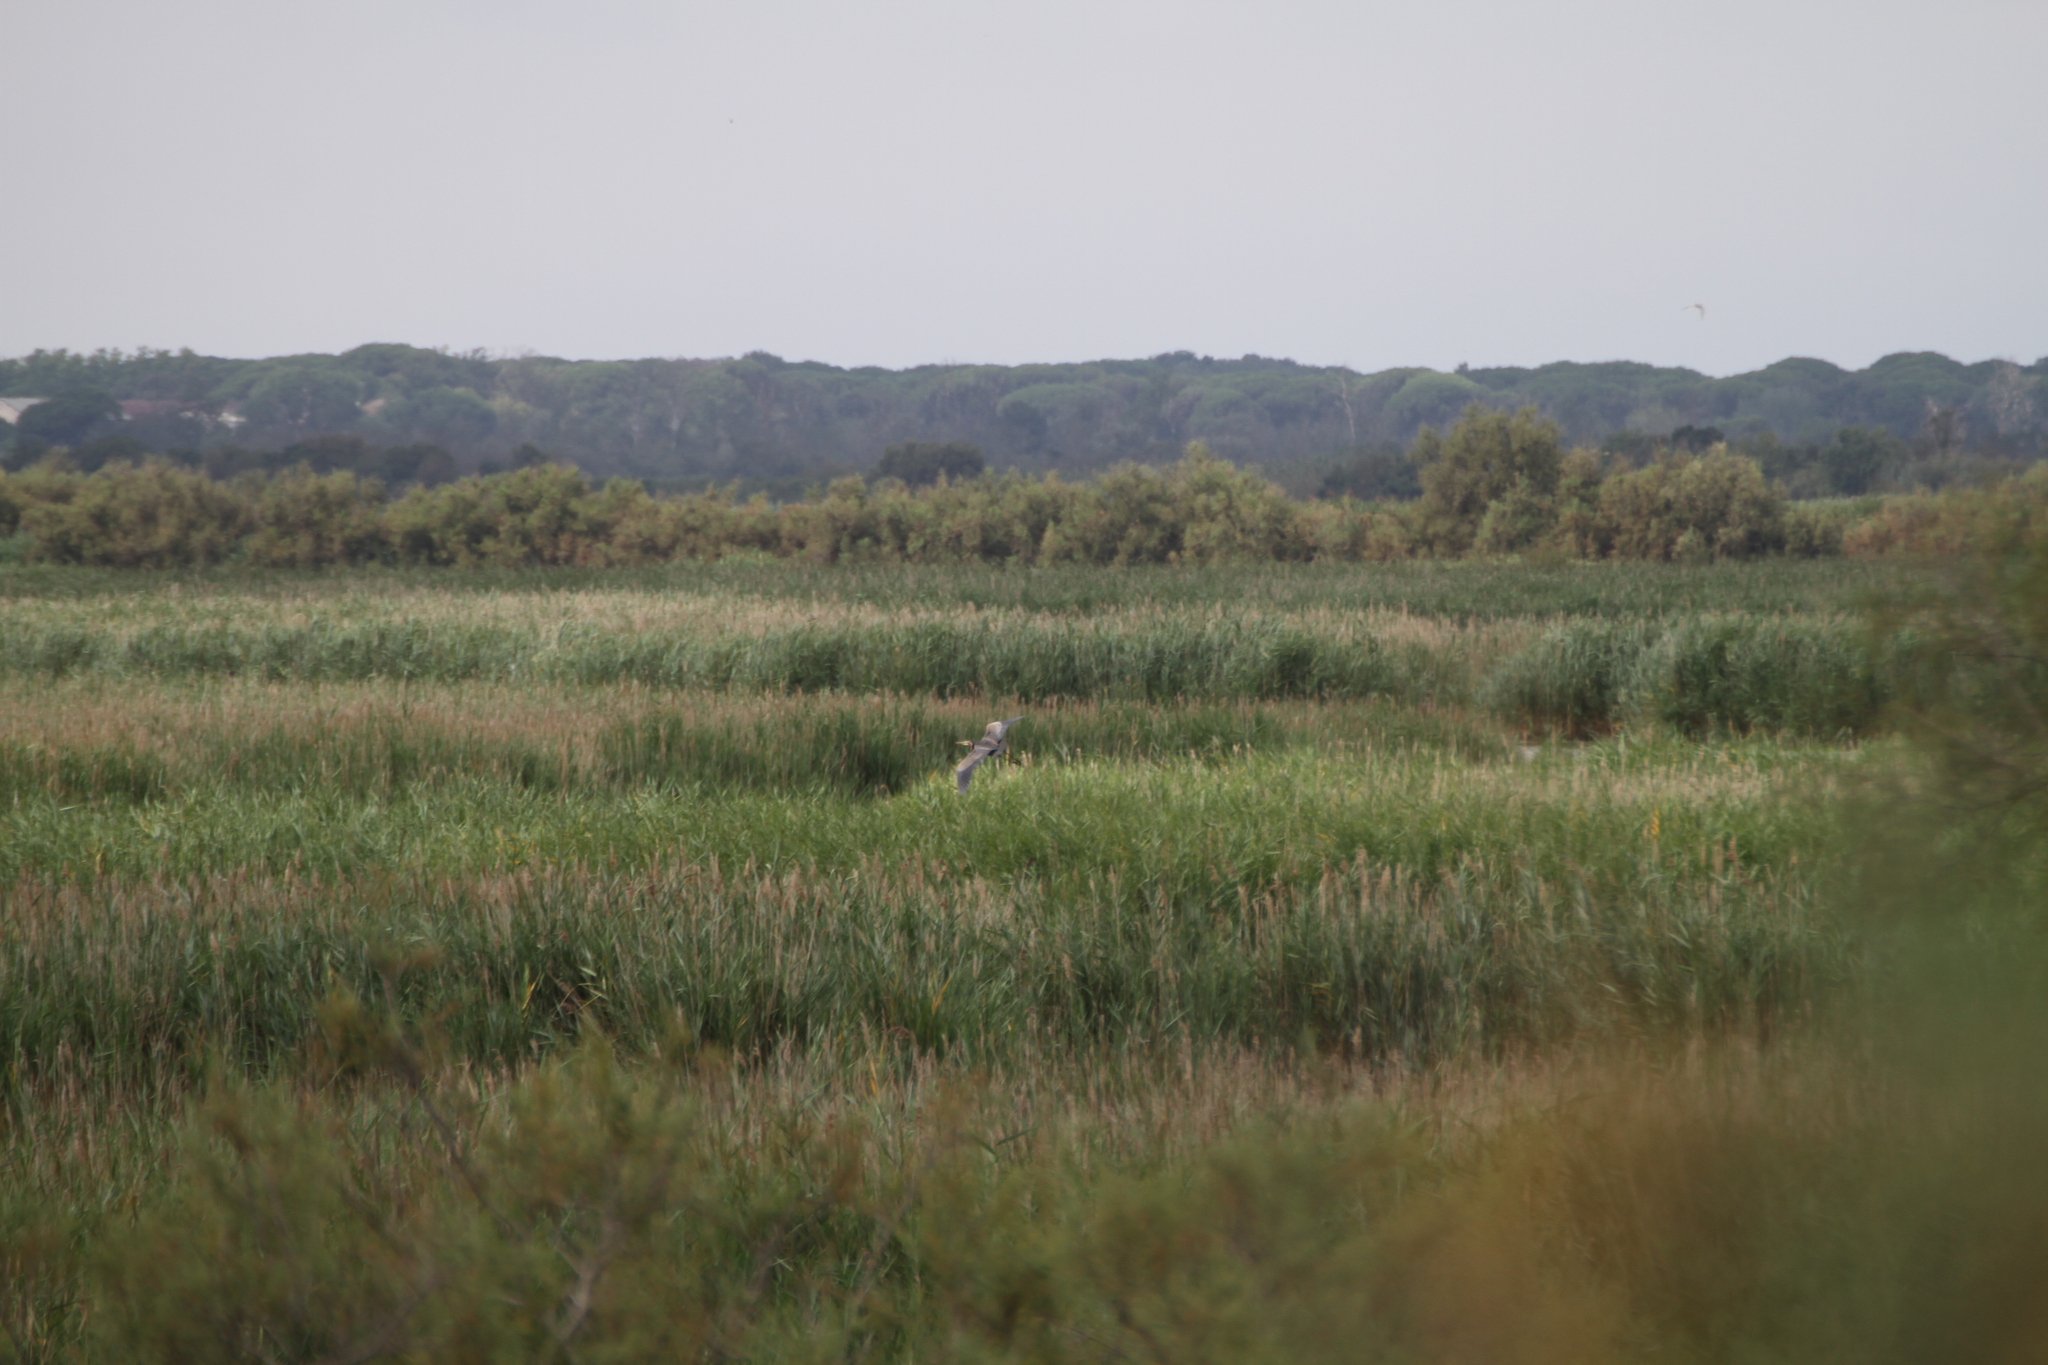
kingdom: Animalia
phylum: Chordata
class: Aves
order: Pelecaniformes
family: Ardeidae
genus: Ardea
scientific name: Ardea purpurea
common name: Purple heron
